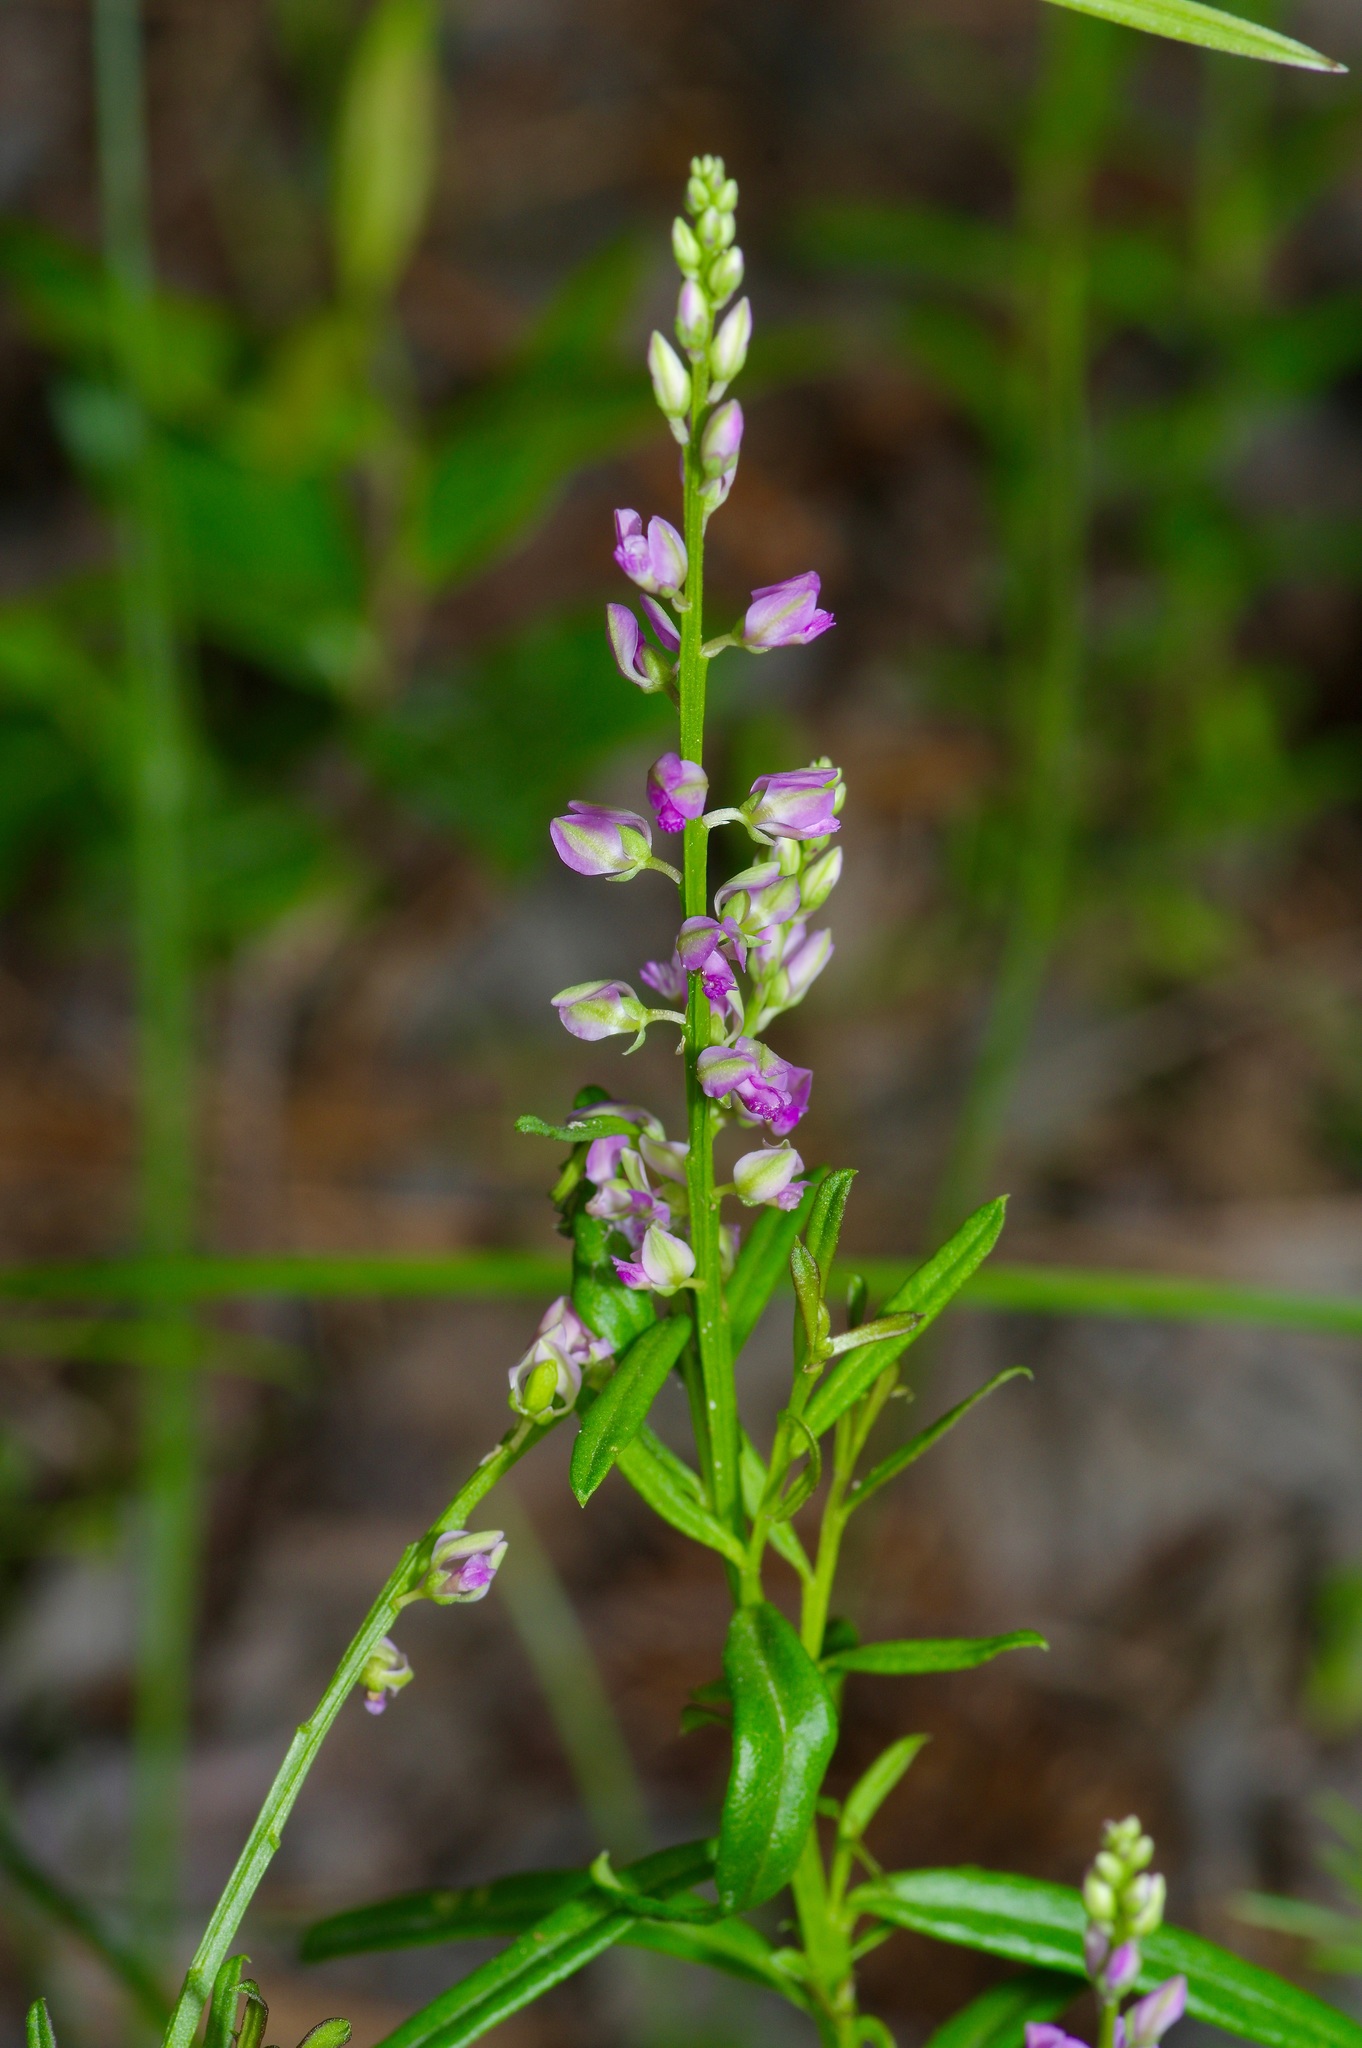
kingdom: Plantae
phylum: Tracheophyta
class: Magnoliopsida
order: Fabales
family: Polygalaceae
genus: Polygala
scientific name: Polygala polygama
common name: Bitter milkwort
